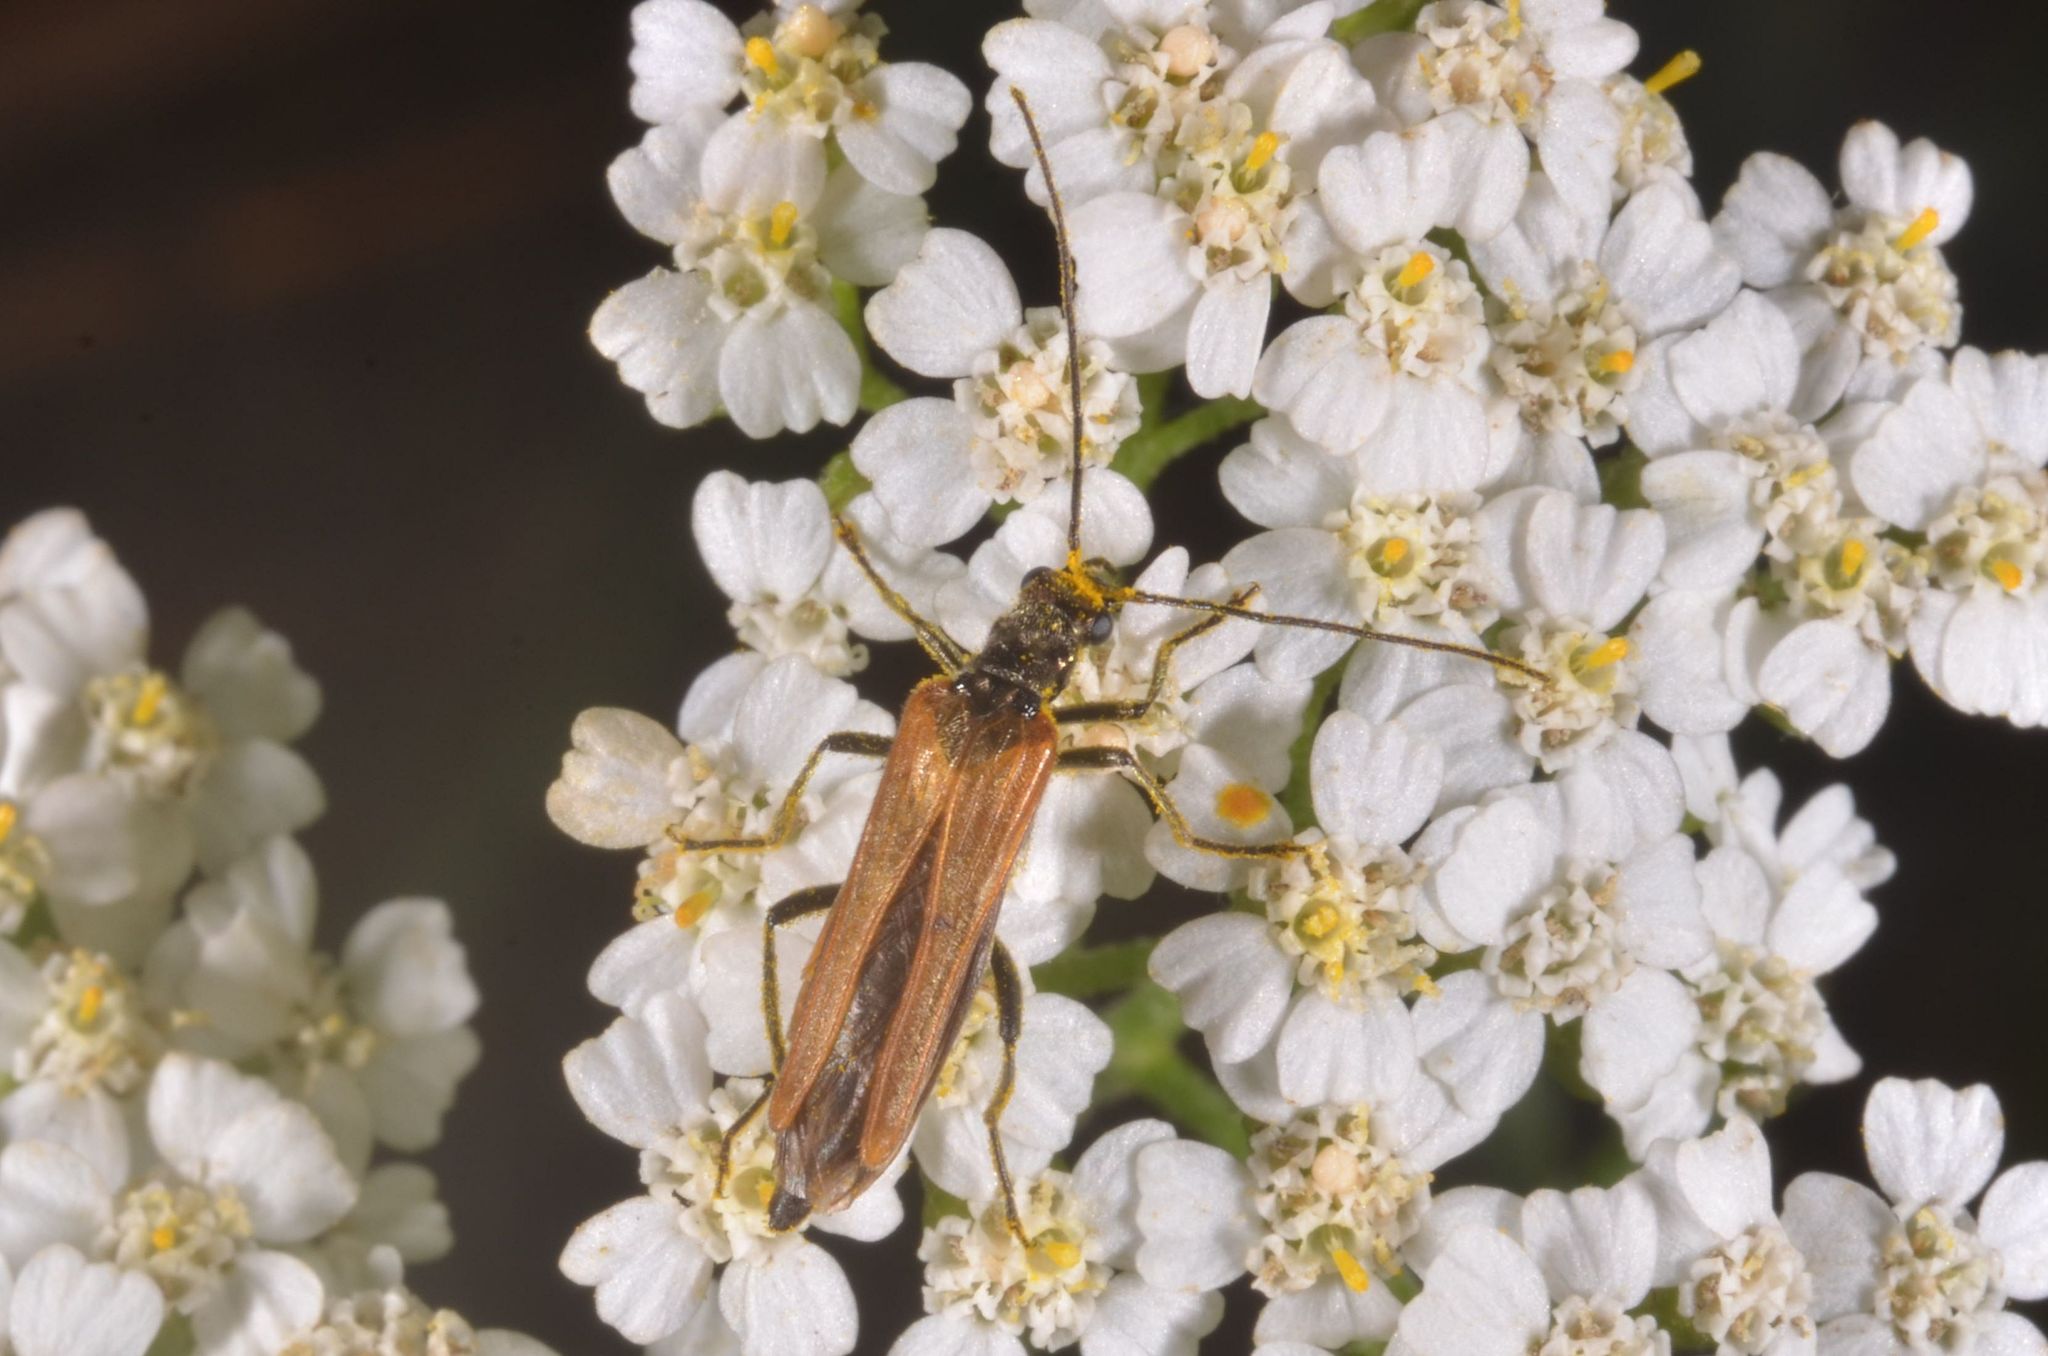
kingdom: Animalia
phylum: Arthropoda
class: Insecta
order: Coleoptera
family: Oedemeridae
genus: Oedemera
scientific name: Oedemera femorata
